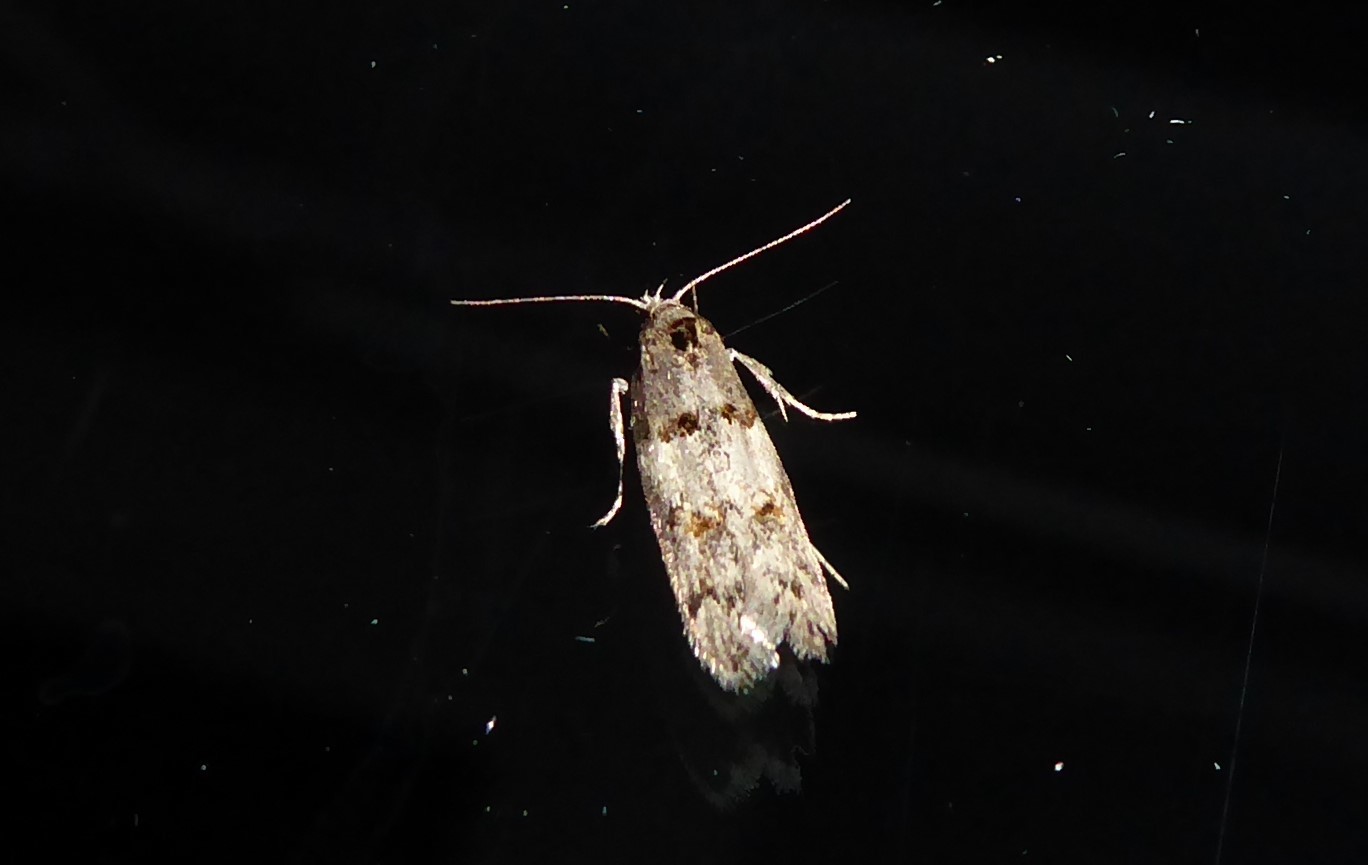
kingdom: Animalia
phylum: Arthropoda
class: Insecta
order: Lepidoptera
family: Oecophoridae
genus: Trachypepla
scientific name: Trachypepla contritella
